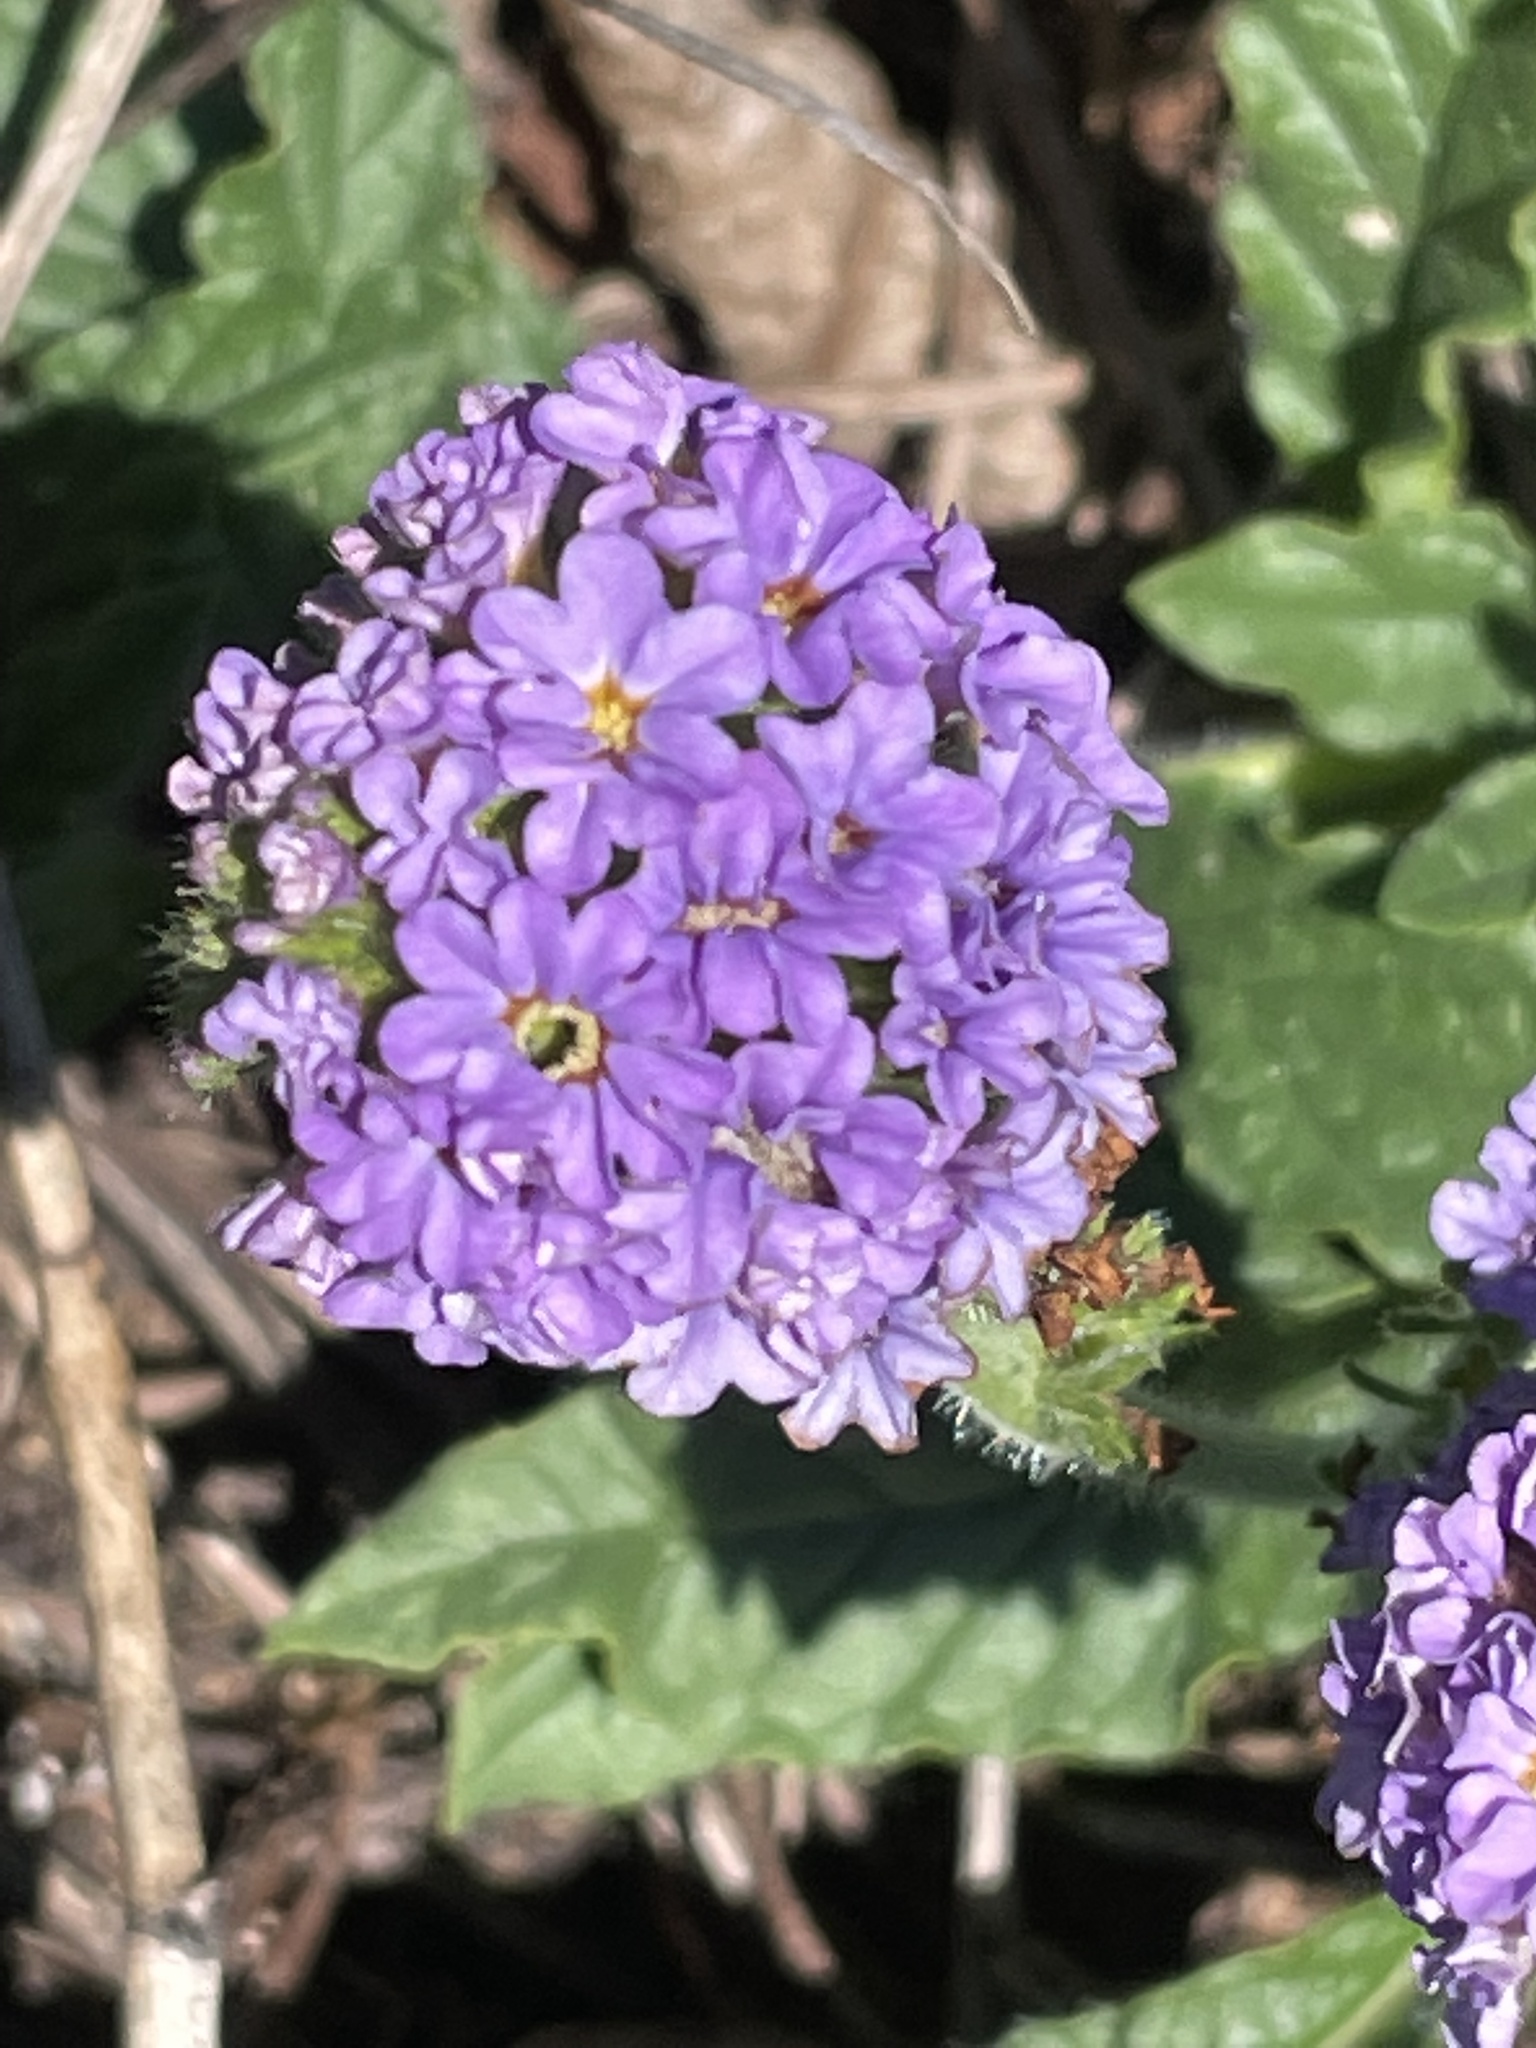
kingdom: Plantae
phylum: Tracheophyta
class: Magnoliopsida
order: Boraginales
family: Heliotropiaceae
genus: Heliotropium
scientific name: Heliotropium amplexicaule
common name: Clasping heliotrope
